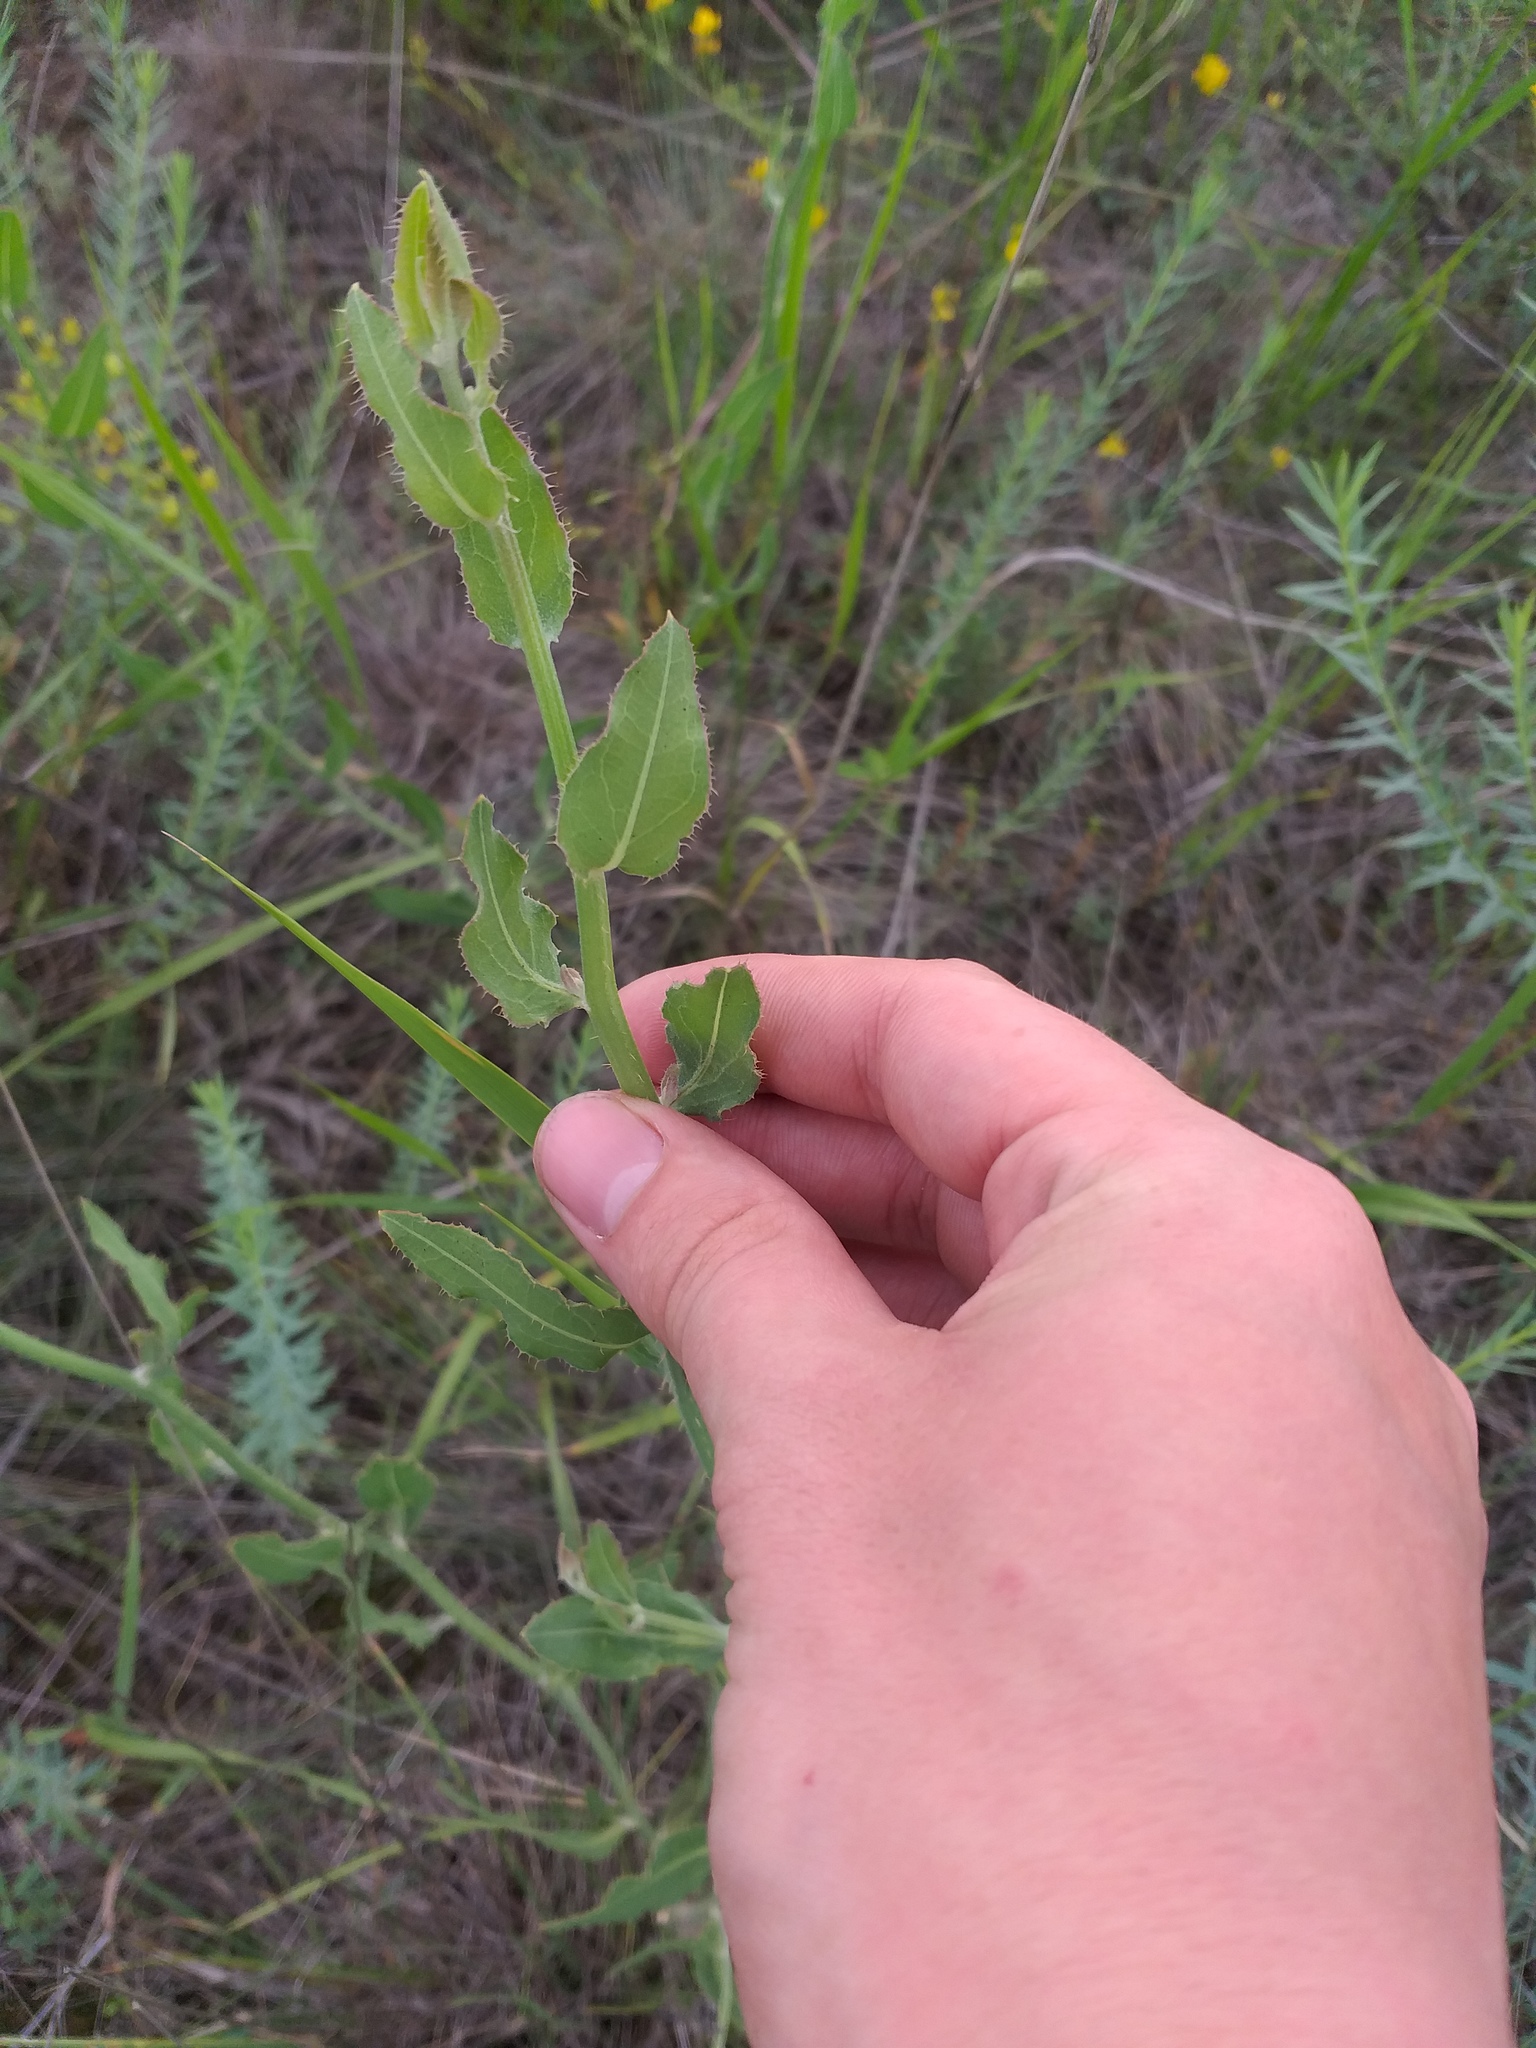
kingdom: Plantae
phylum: Tracheophyta
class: Magnoliopsida
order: Asterales
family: Asteraceae
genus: Chondrilla
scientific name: Chondrilla latifolia
